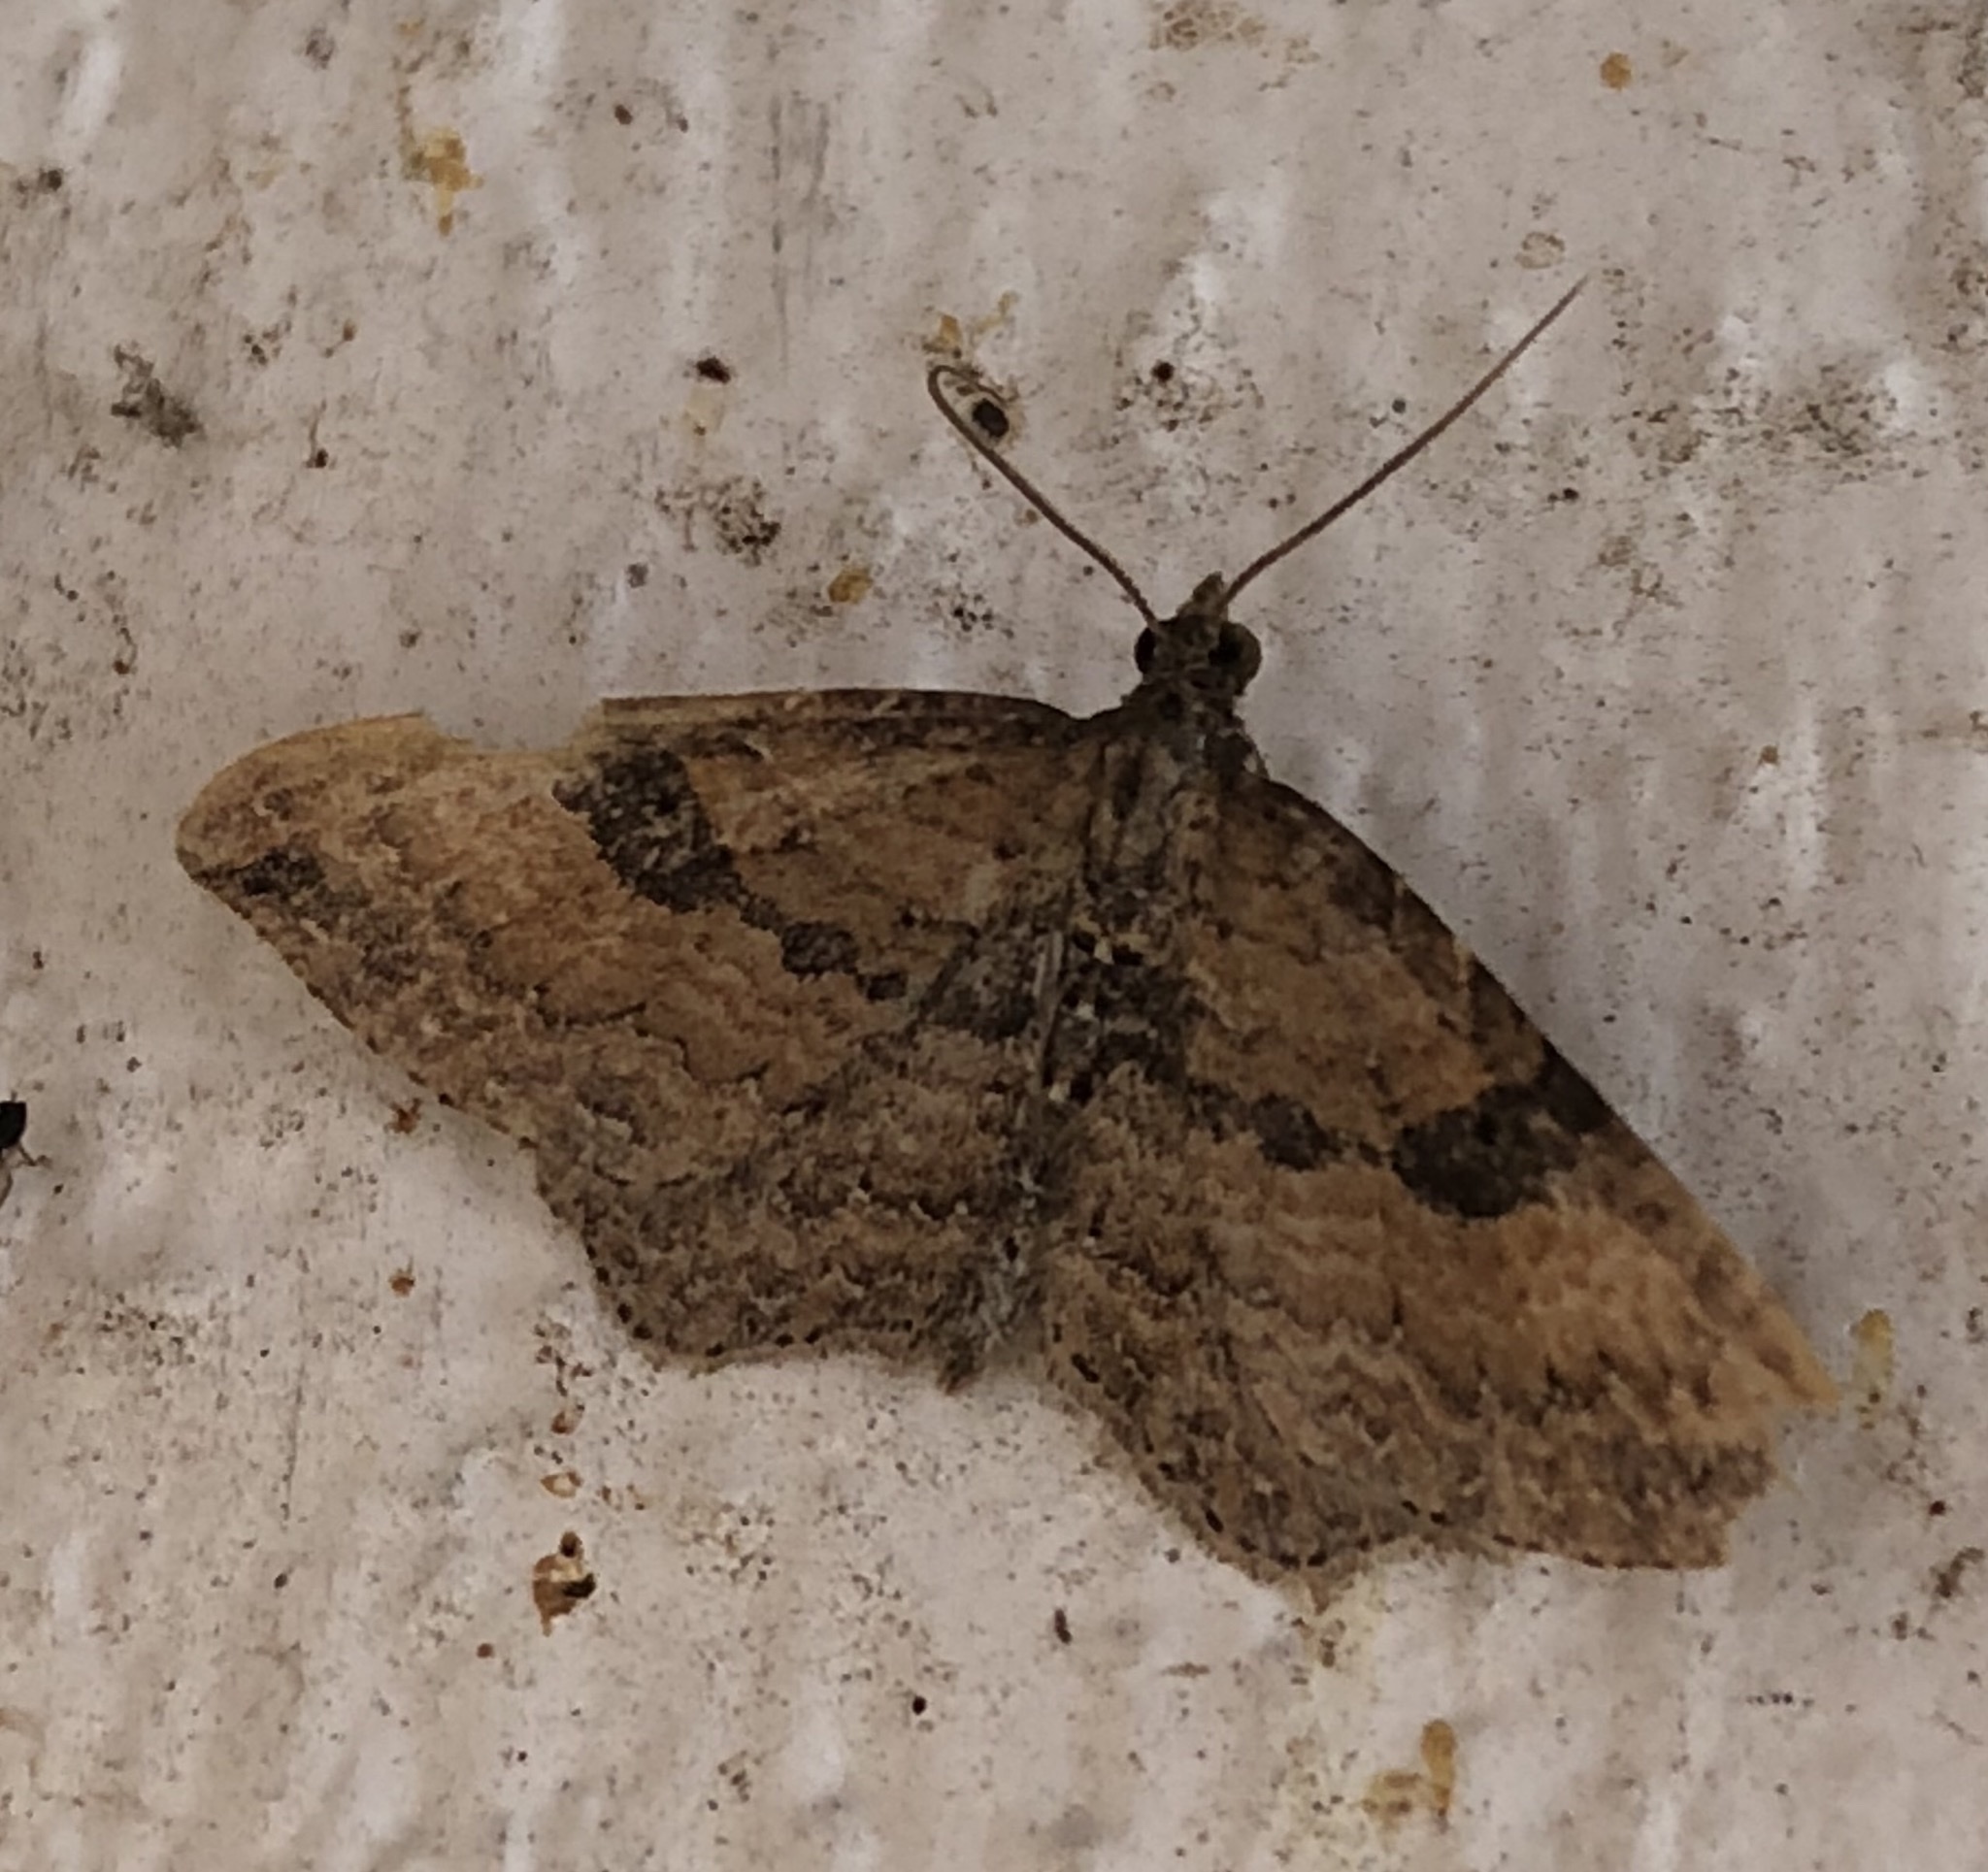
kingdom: Animalia
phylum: Arthropoda
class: Insecta
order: Lepidoptera
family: Geometridae
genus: Orthonama
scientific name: Orthonama obstipata
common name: The gem
